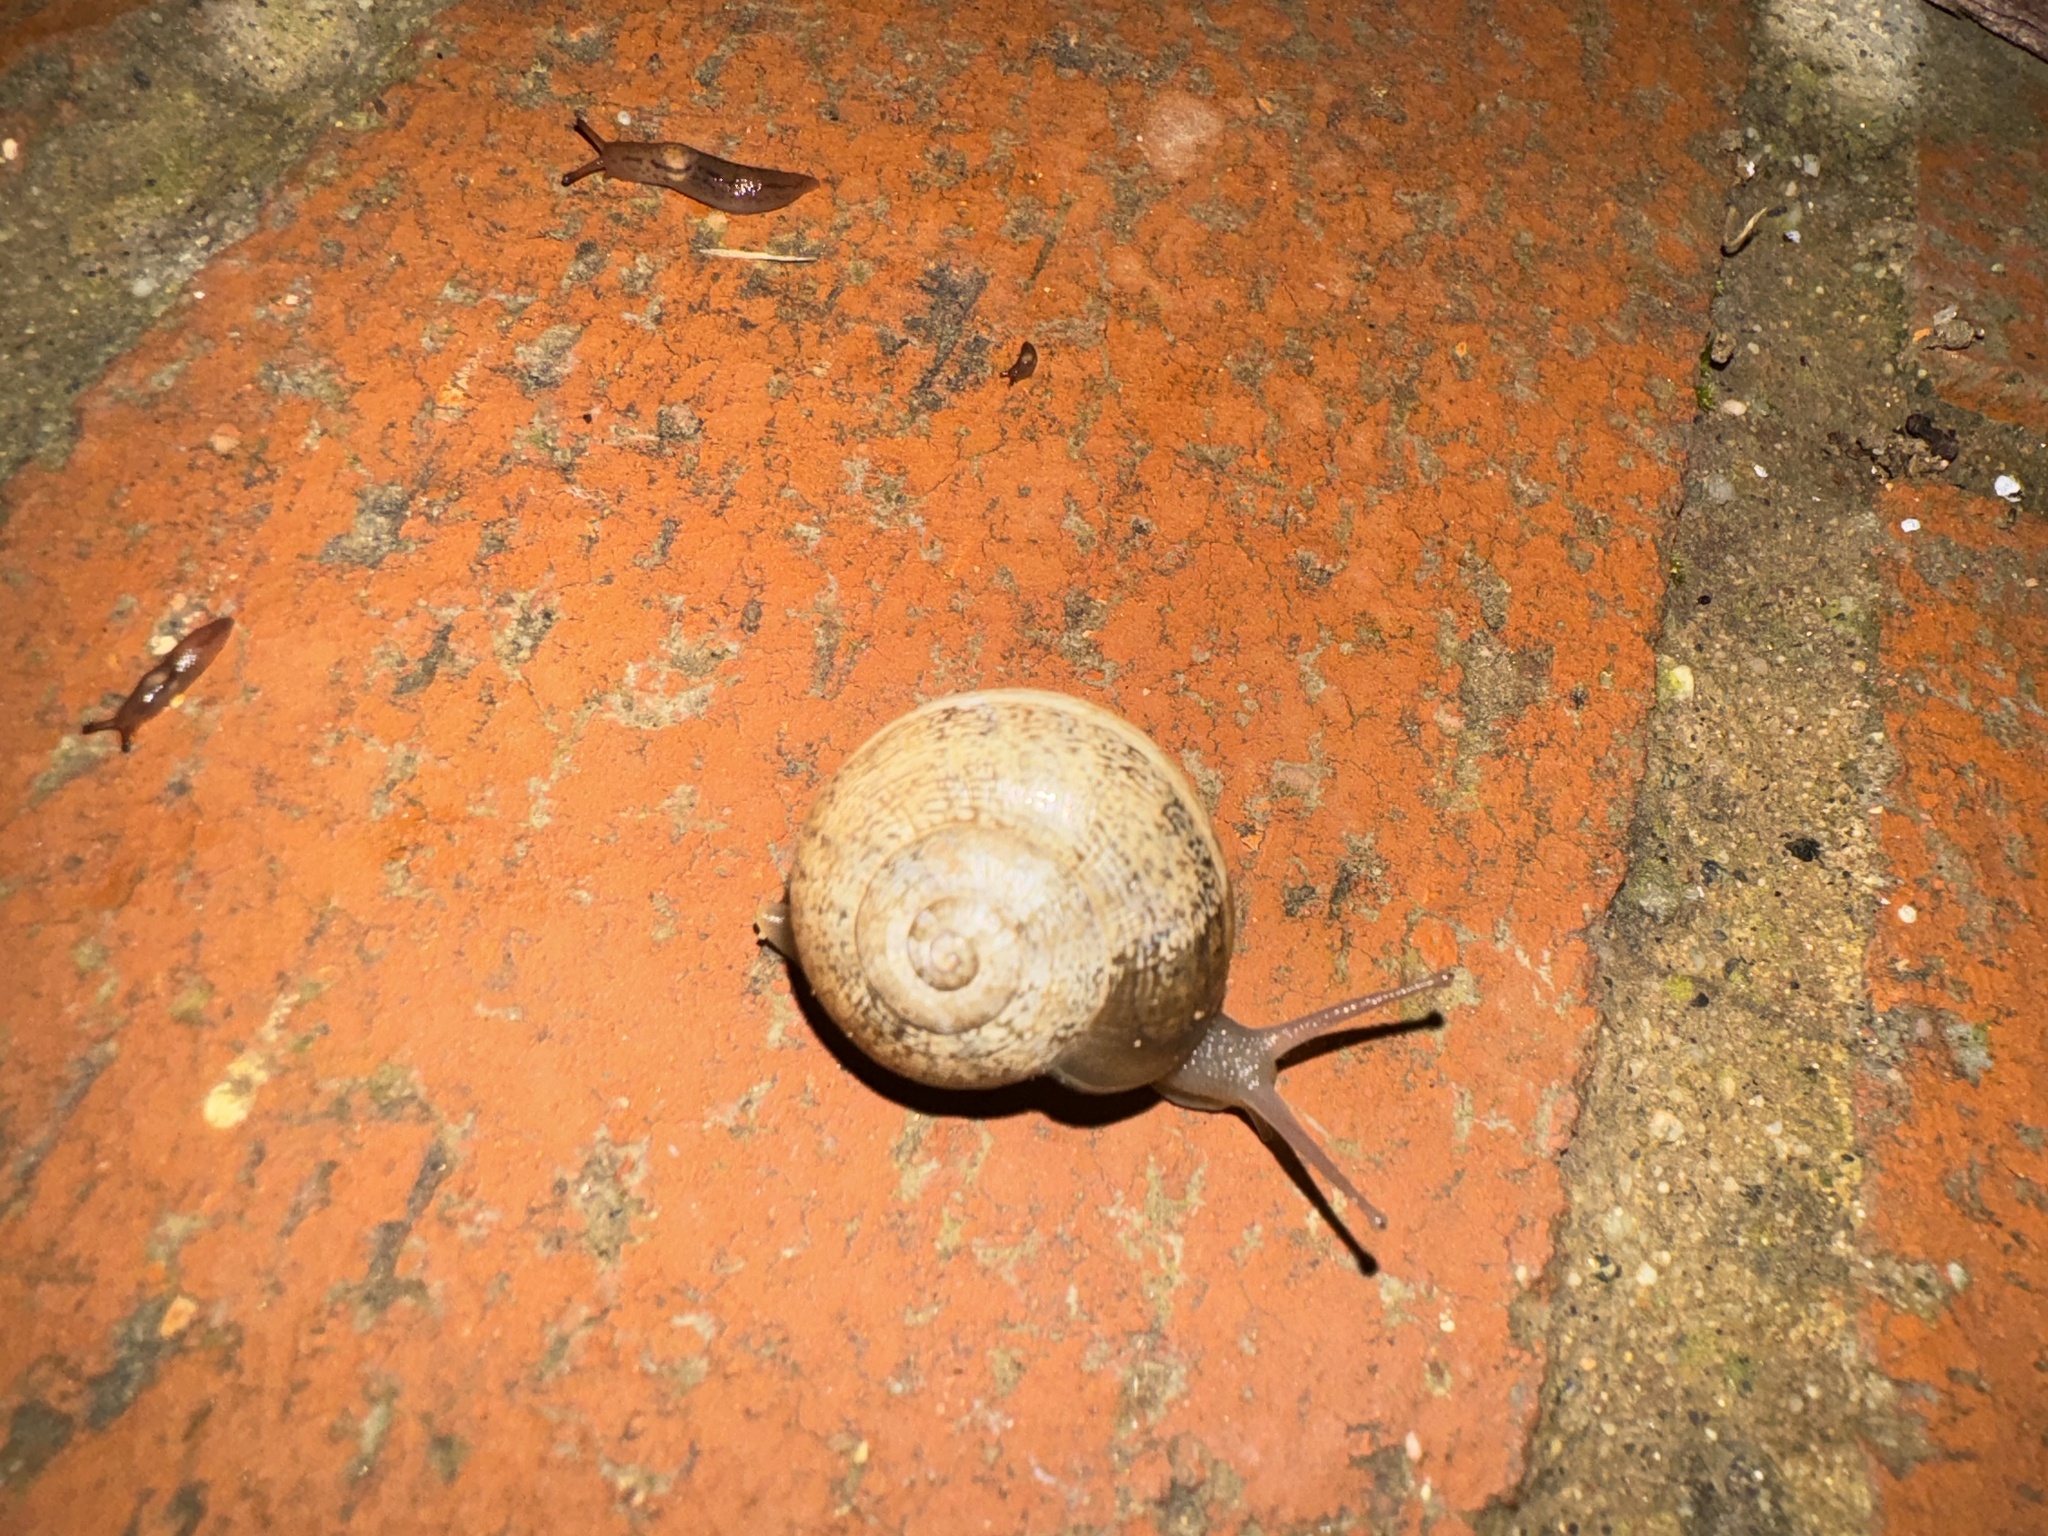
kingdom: Animalia
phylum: Mollusca
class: Gastropoda
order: Stylommatophora
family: Helicidae
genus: Otala
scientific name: Otala lactea
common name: Milk snail
